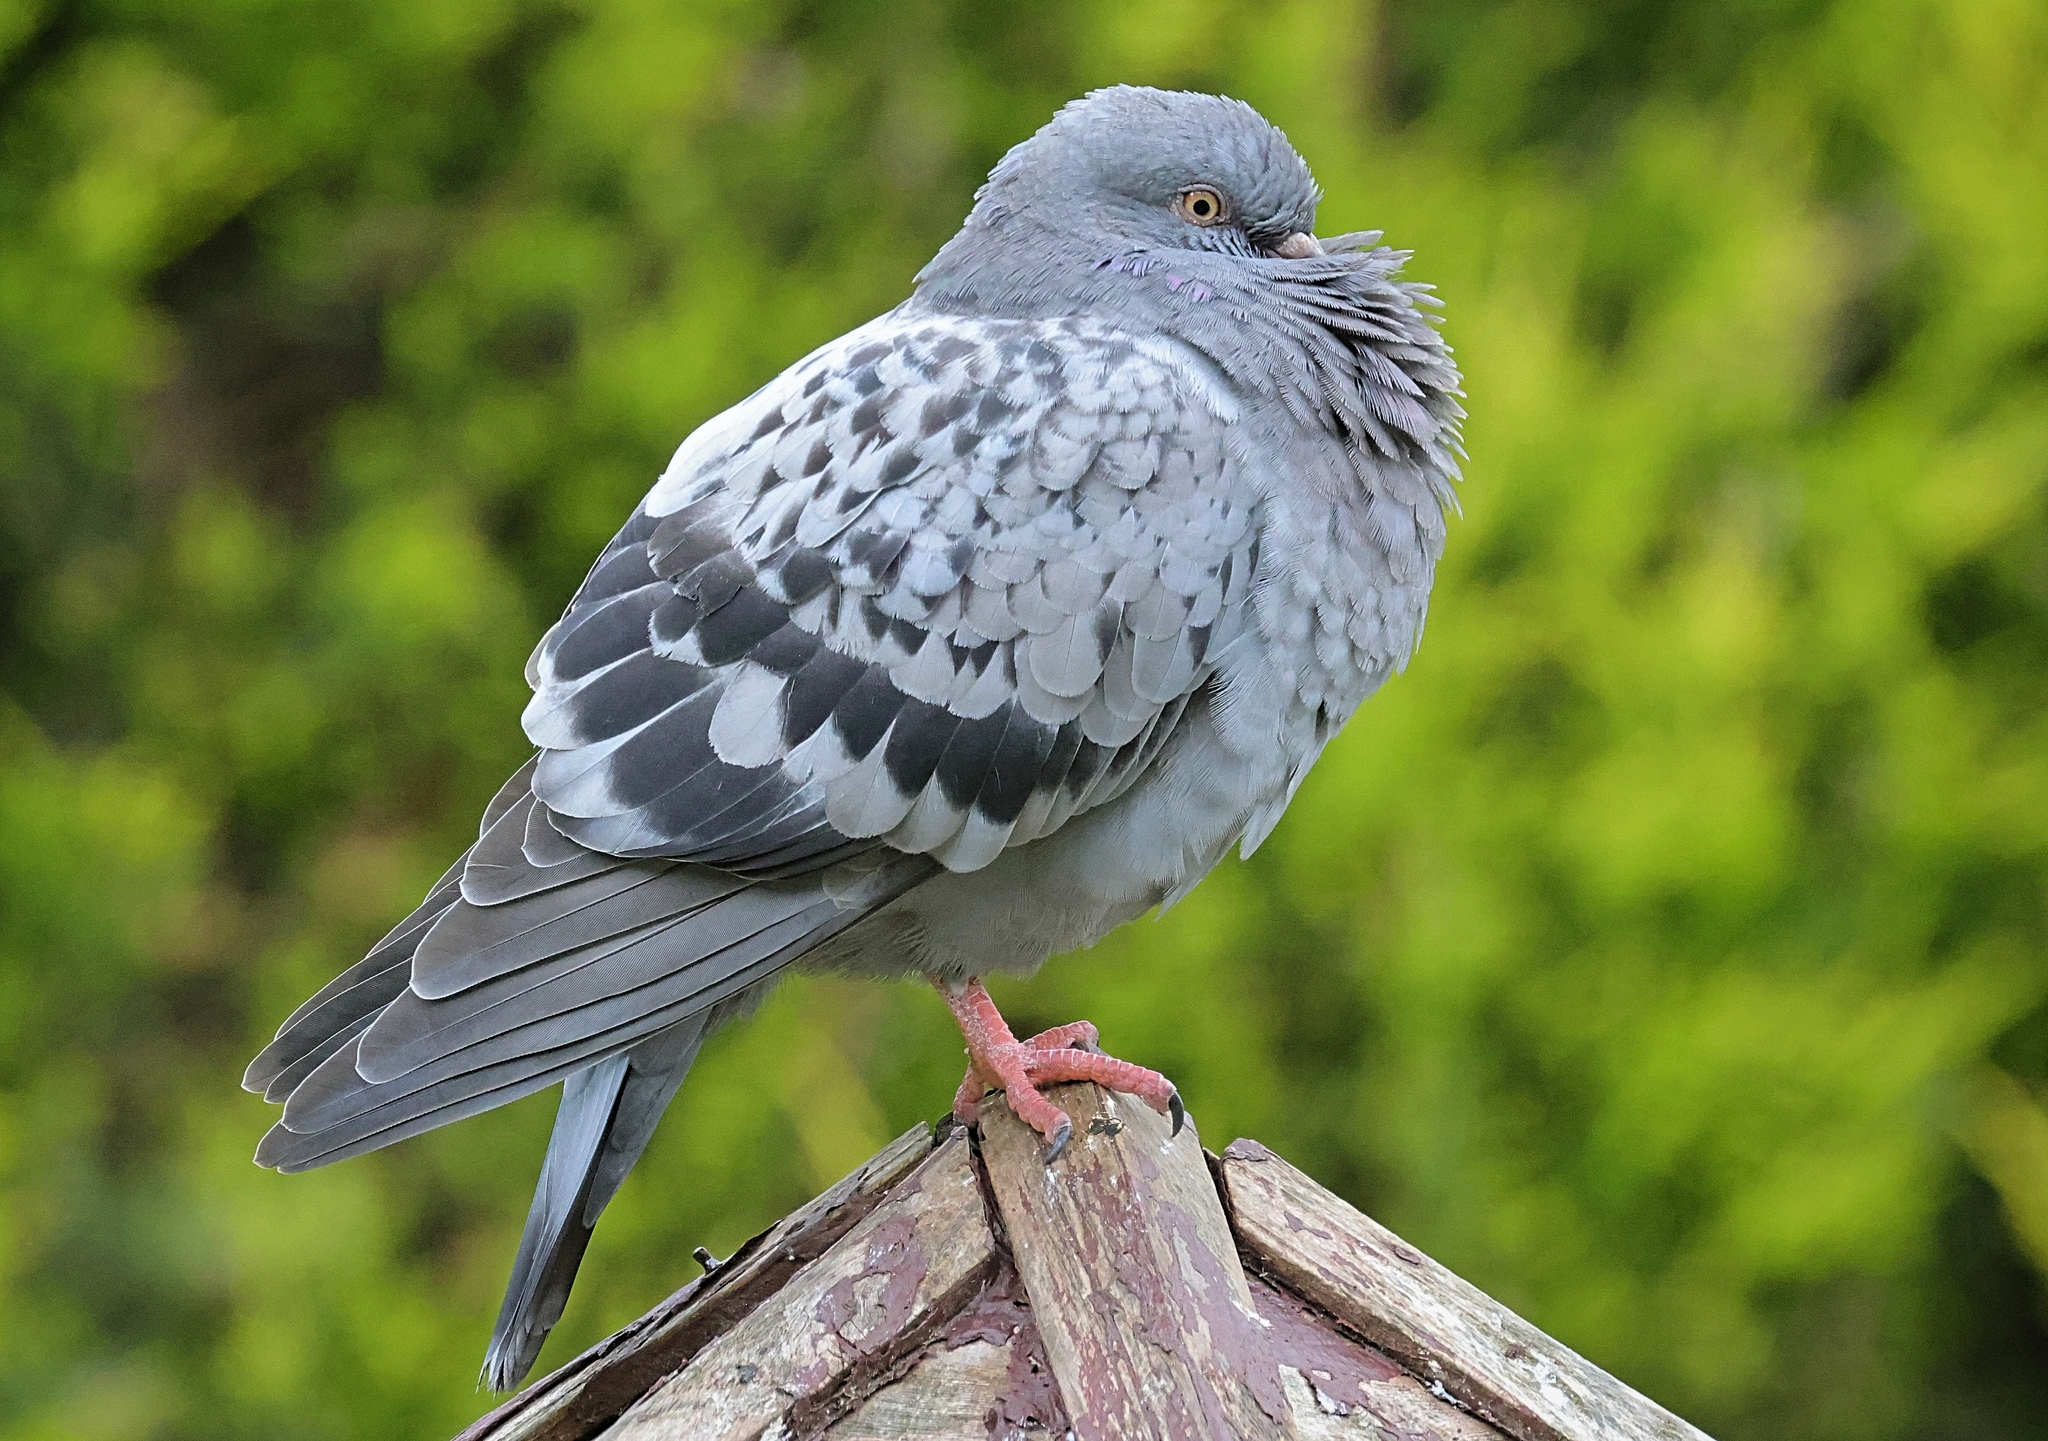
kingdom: Animalia
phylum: Chordata
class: Aves
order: Columbiformes
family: Columbidae
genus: Columba
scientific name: Columba livia
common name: Rock pigeon
